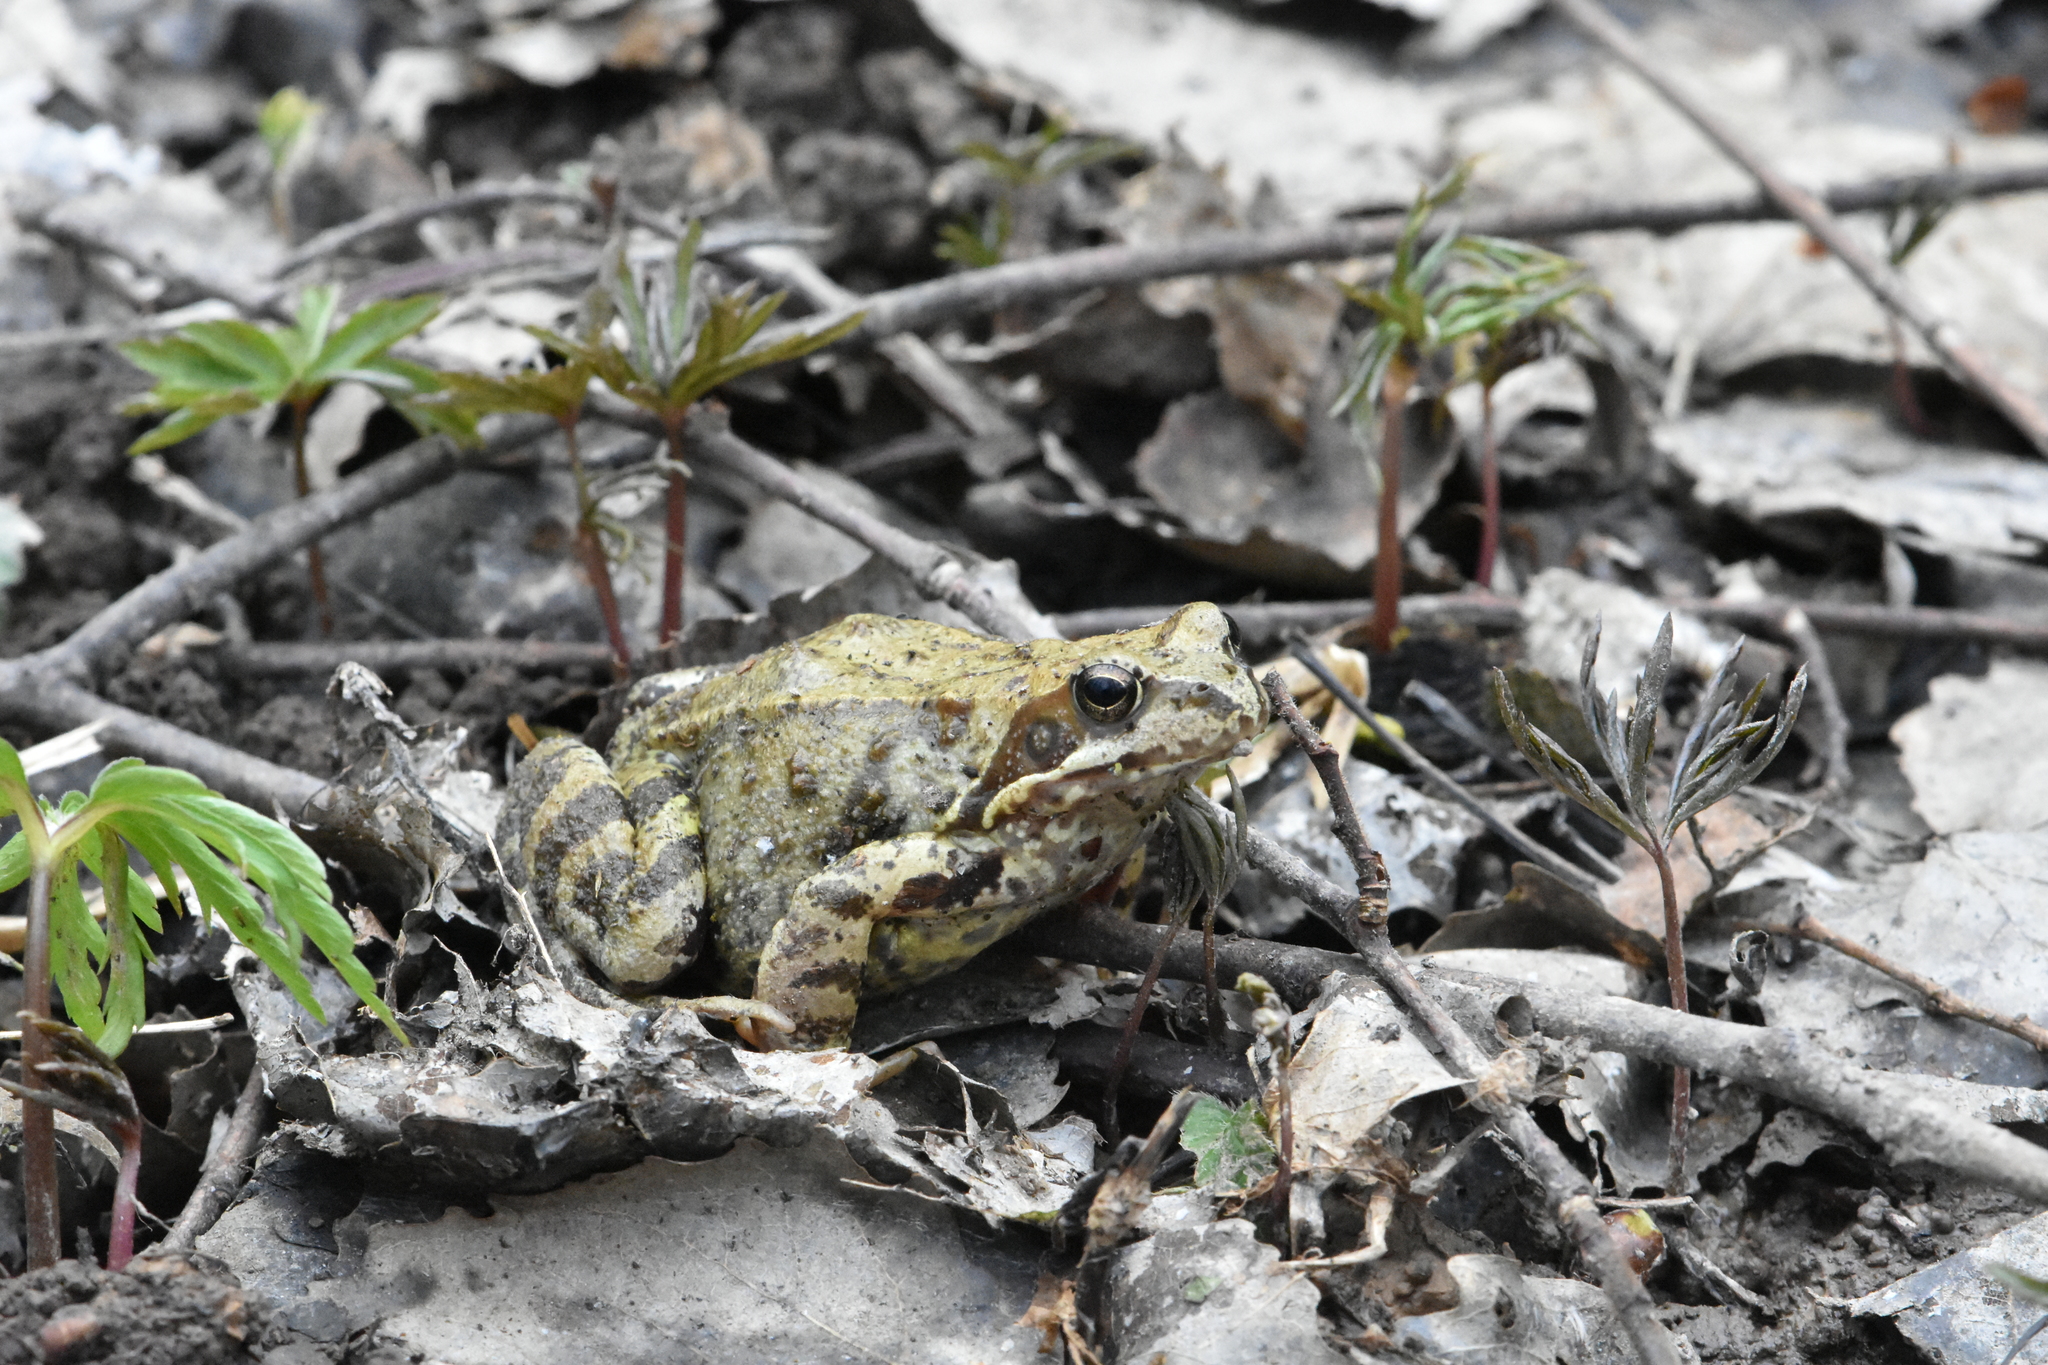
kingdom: Animalia
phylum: Chordata
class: Amphibia
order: Anura
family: Ranidae
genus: Rana
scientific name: Rana temporaria
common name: Common frog
